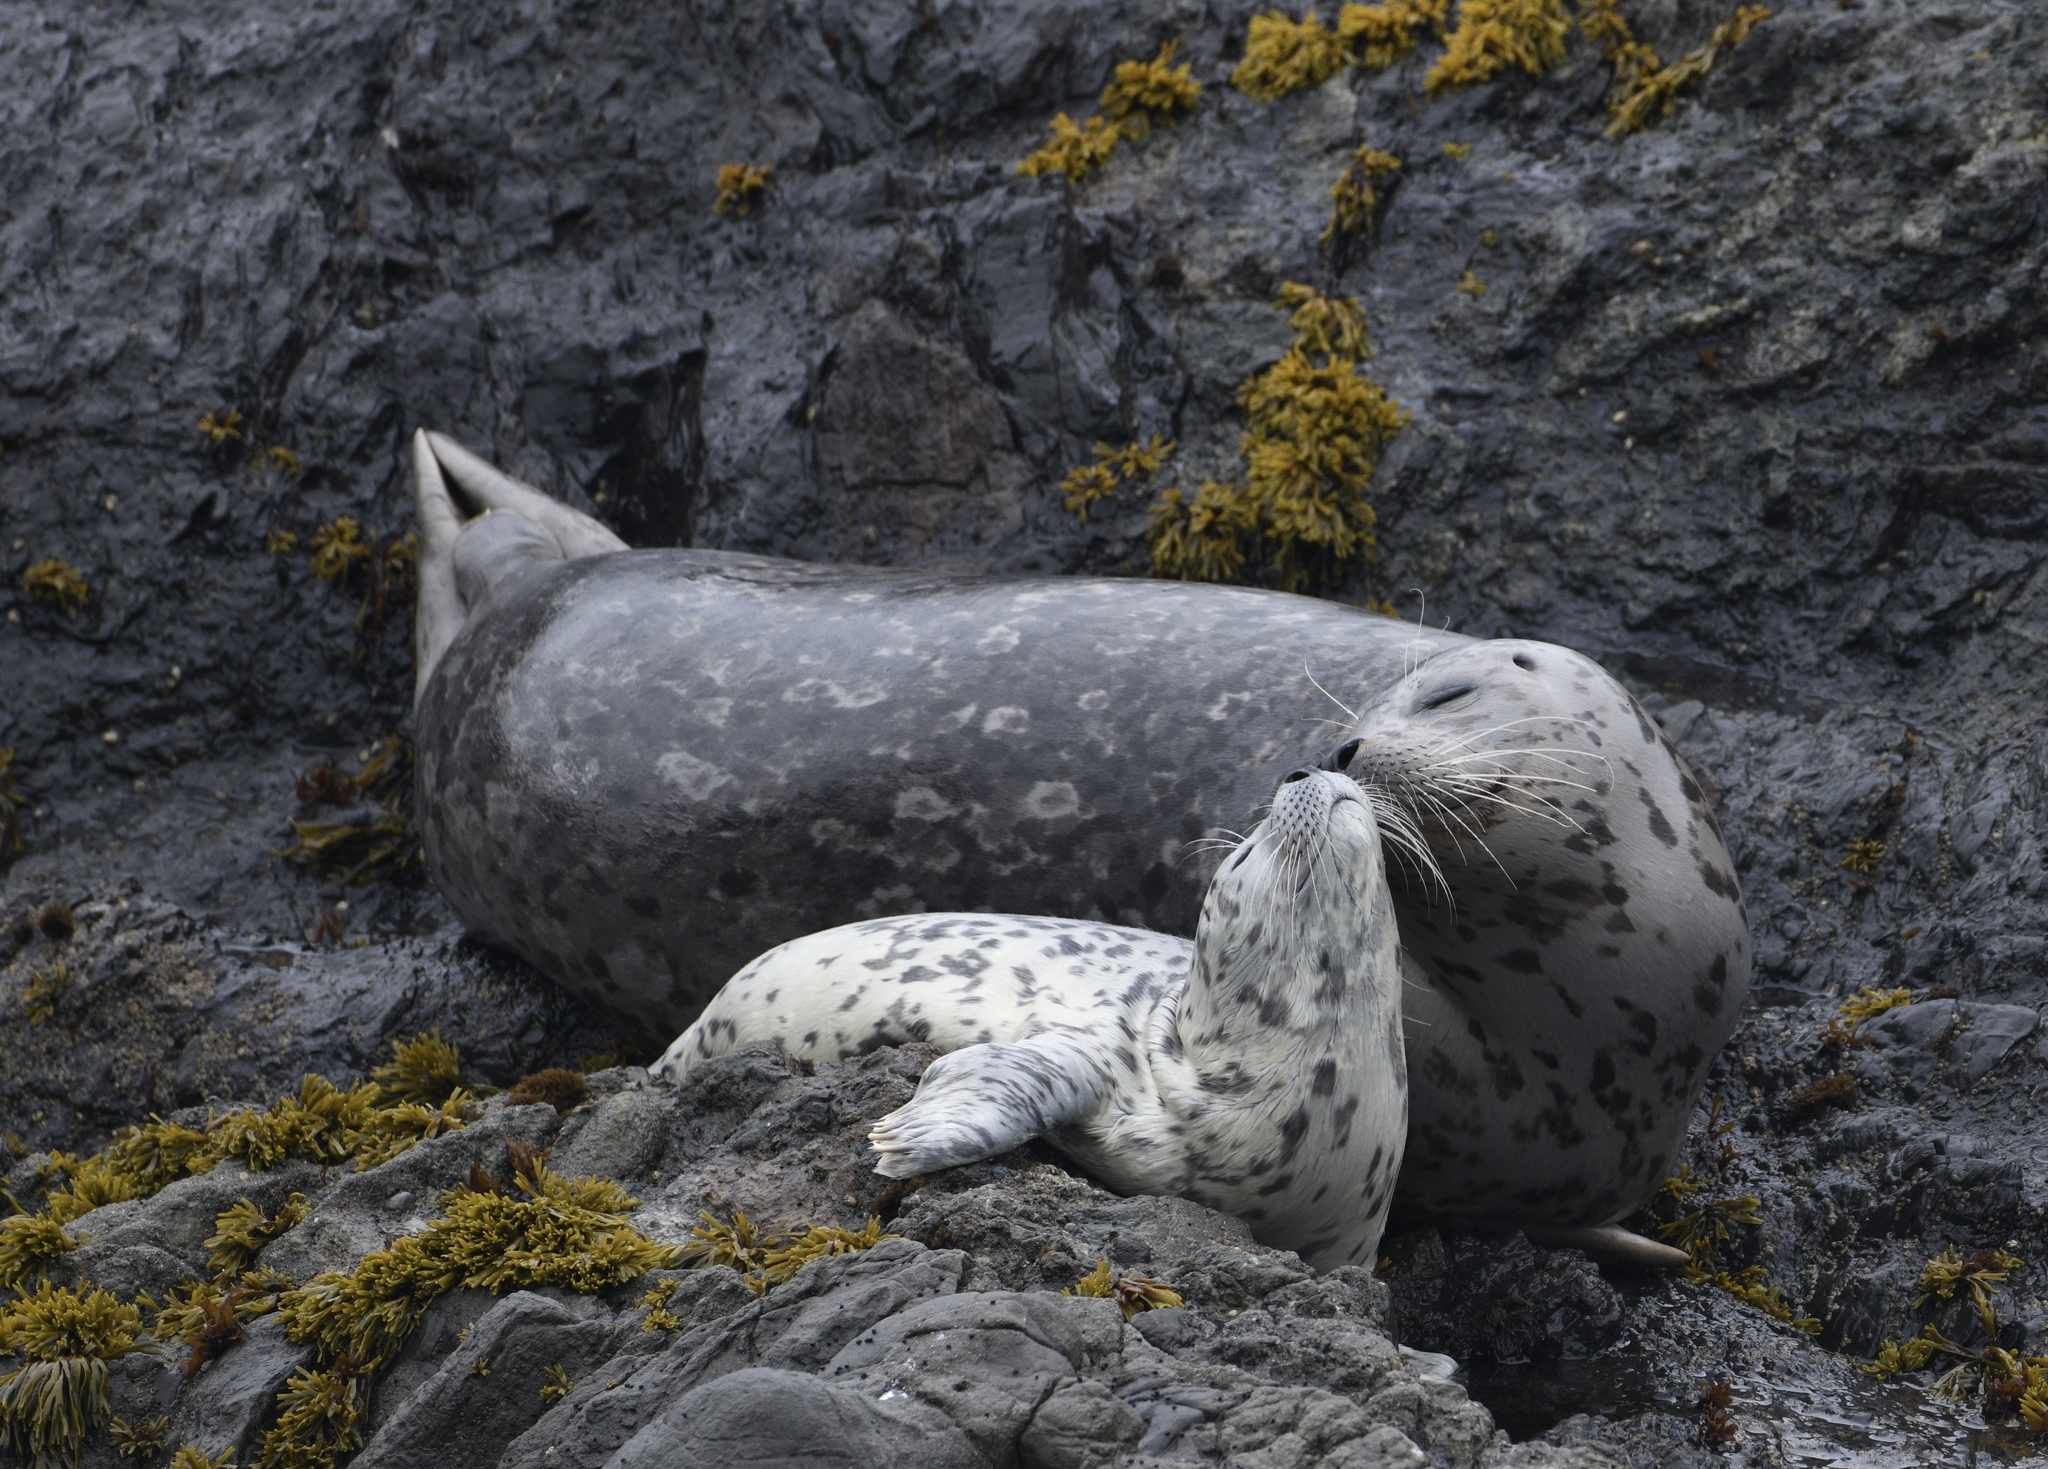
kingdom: Animalia
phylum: Chordata
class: Mammalia
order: Carnivora
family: Phocidae
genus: Phoca
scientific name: Phoca vitulina
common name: Harbor seal
